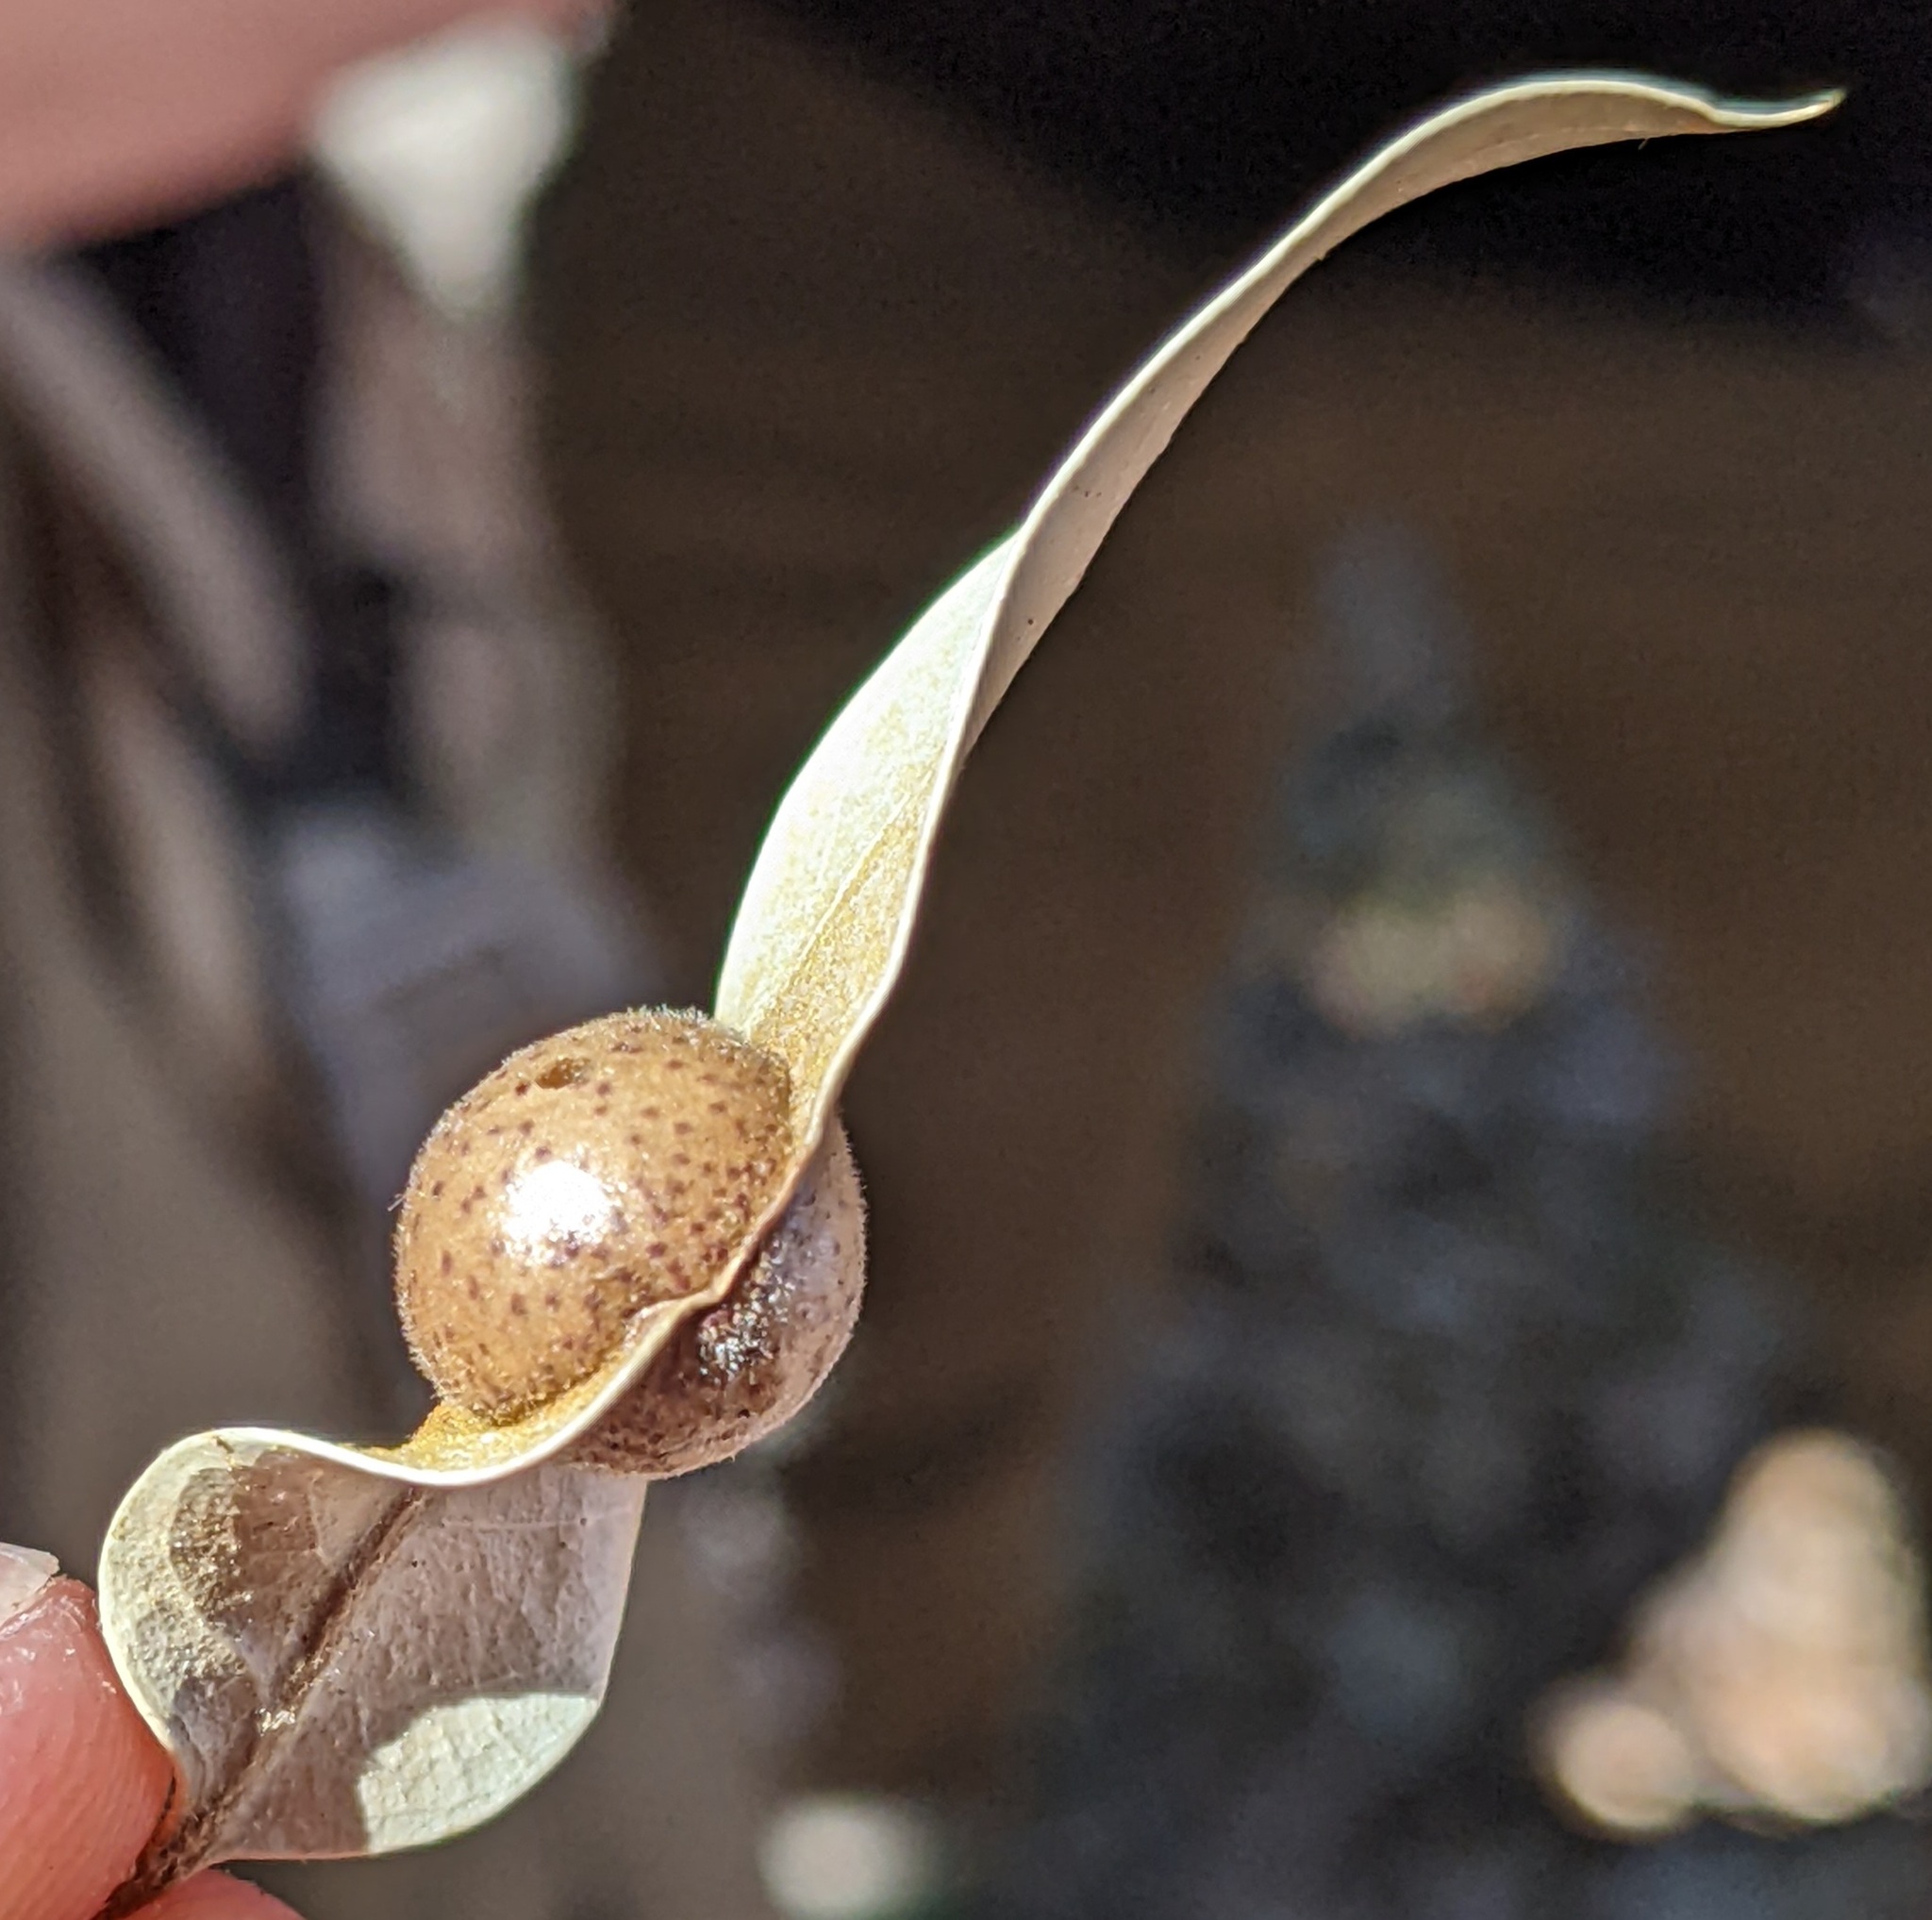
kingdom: Animalia
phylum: Arthropoda
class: Insecta
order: Hymenoptera
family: Cynipidae
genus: Heteroecus
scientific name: Heteroecus
